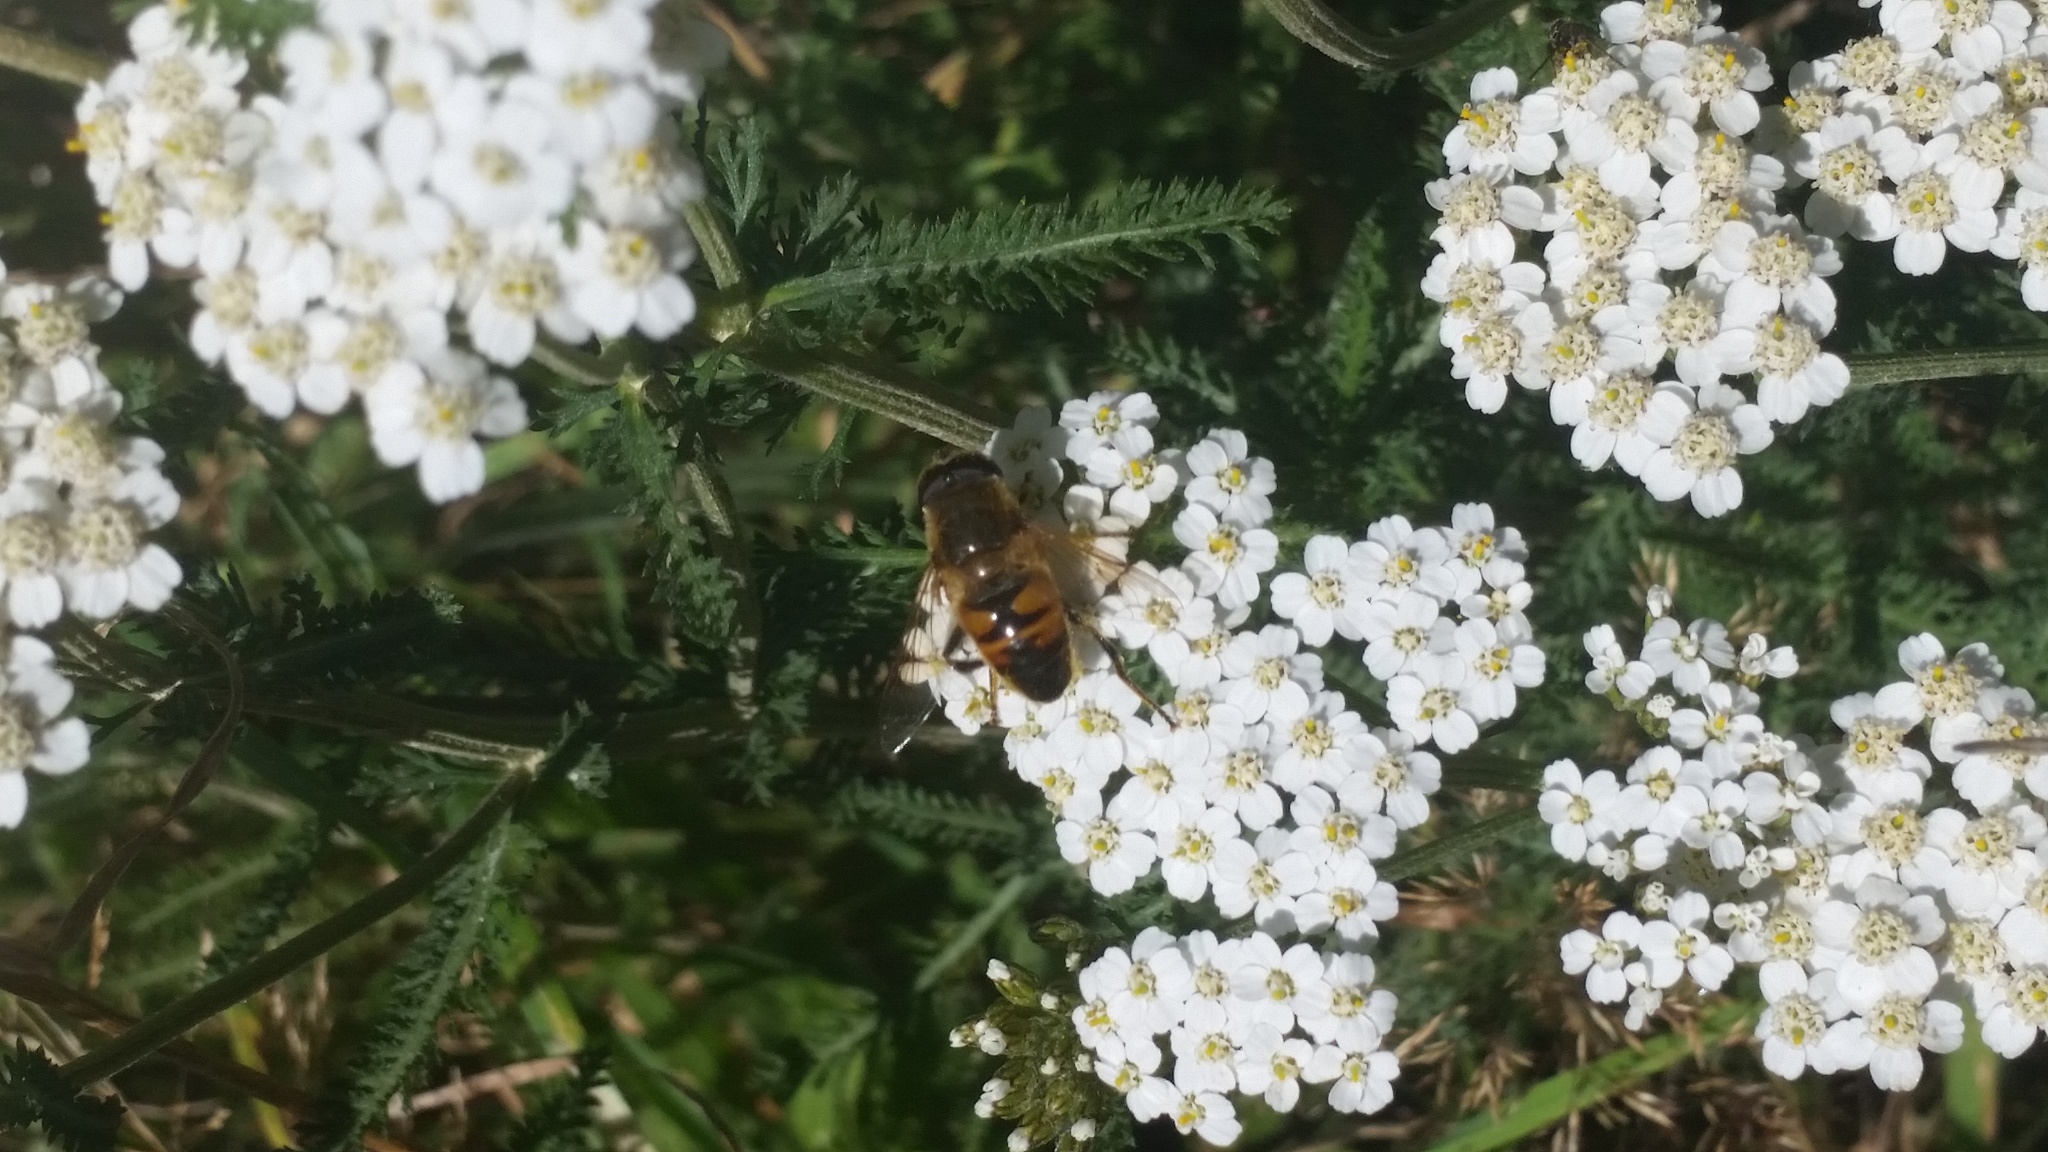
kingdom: Animalia
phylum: Arthropoda
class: Insecta
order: Diptera
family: Syrphidae
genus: Eristalis
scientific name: Eristalis tenax
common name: Drone fly
